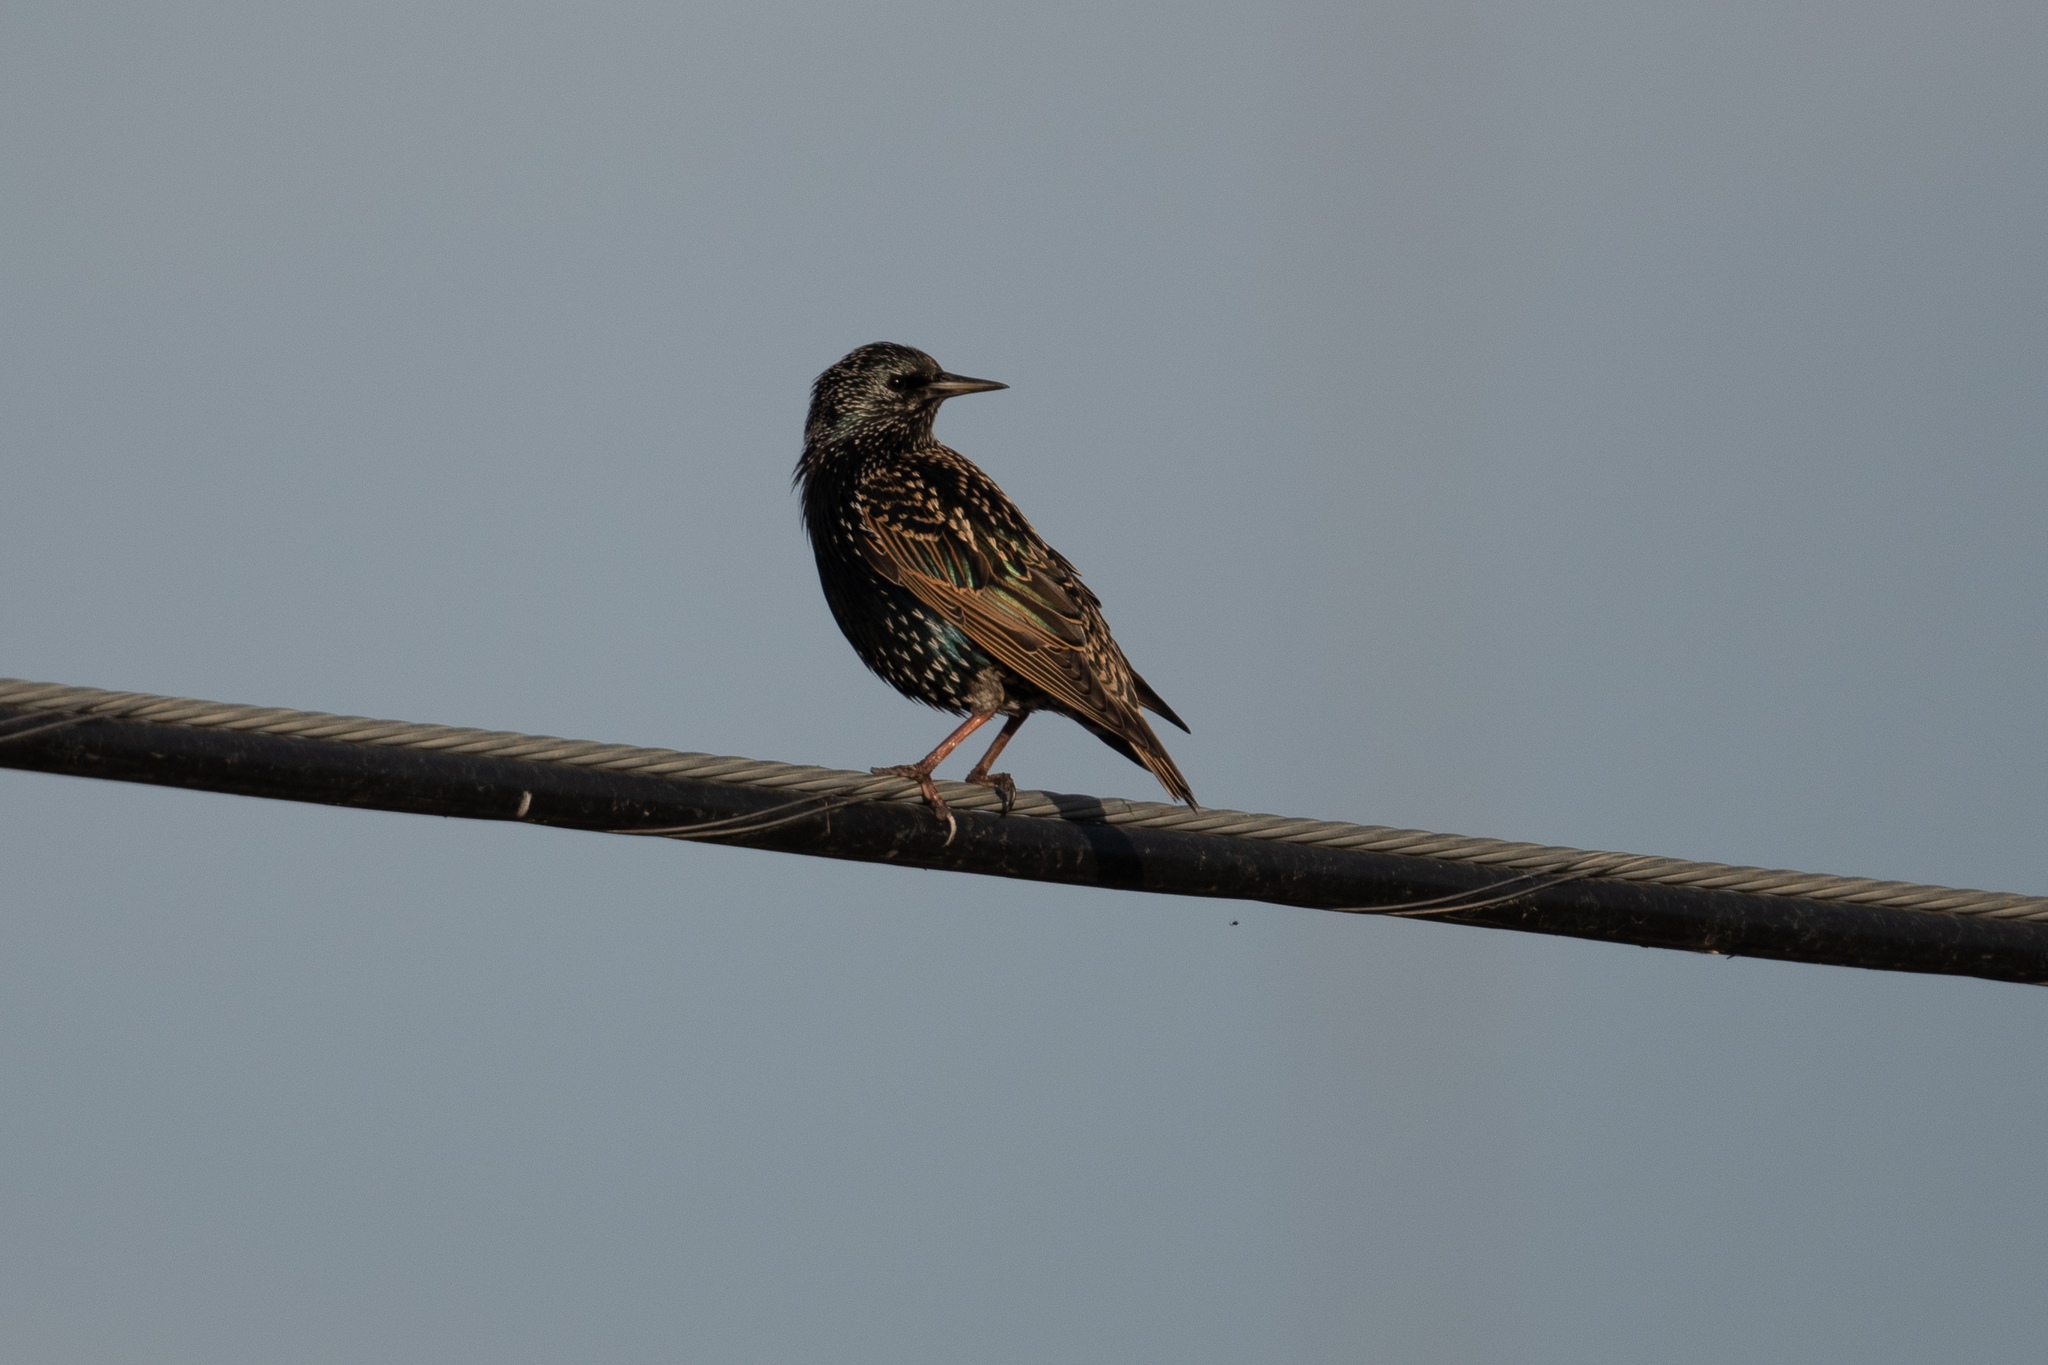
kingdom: Animalia
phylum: Chordata
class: Aves
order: Passeriformes
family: Sturnidae
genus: Sturnus
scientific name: Sturnus vulgaris
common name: Common starling
